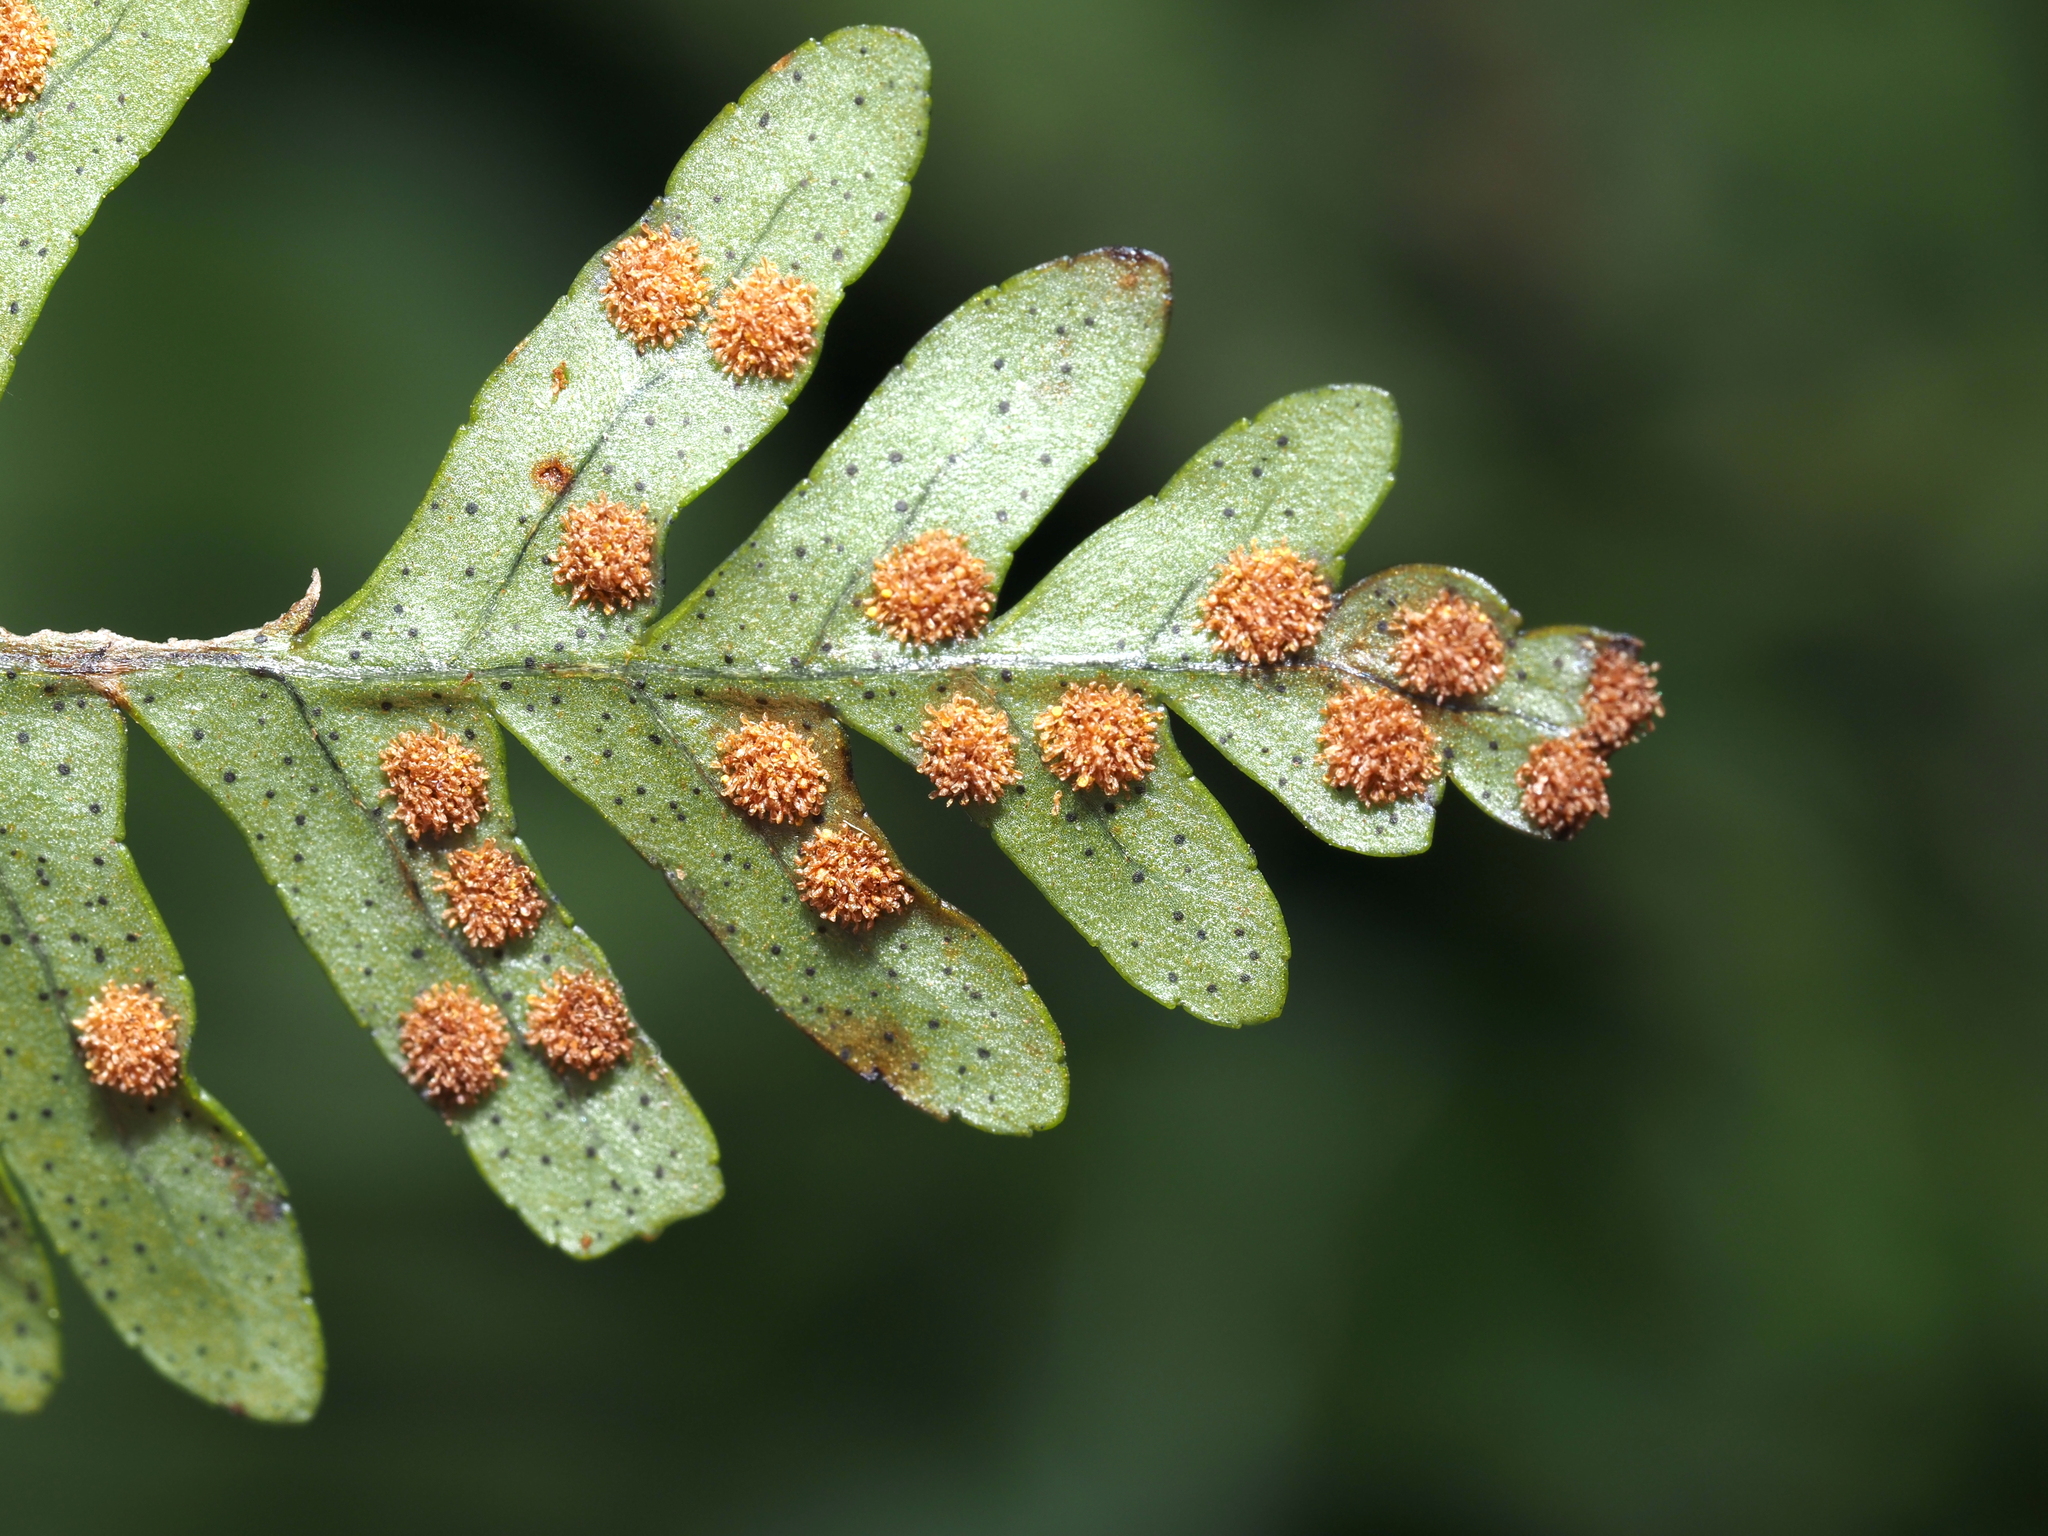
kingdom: Plantae
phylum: Tracheophyta
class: Polypodiopsida
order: Polypodiales
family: Polypodiaceae
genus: Polypodium
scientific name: Polypodium appalachianum
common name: Appalachian polypody
